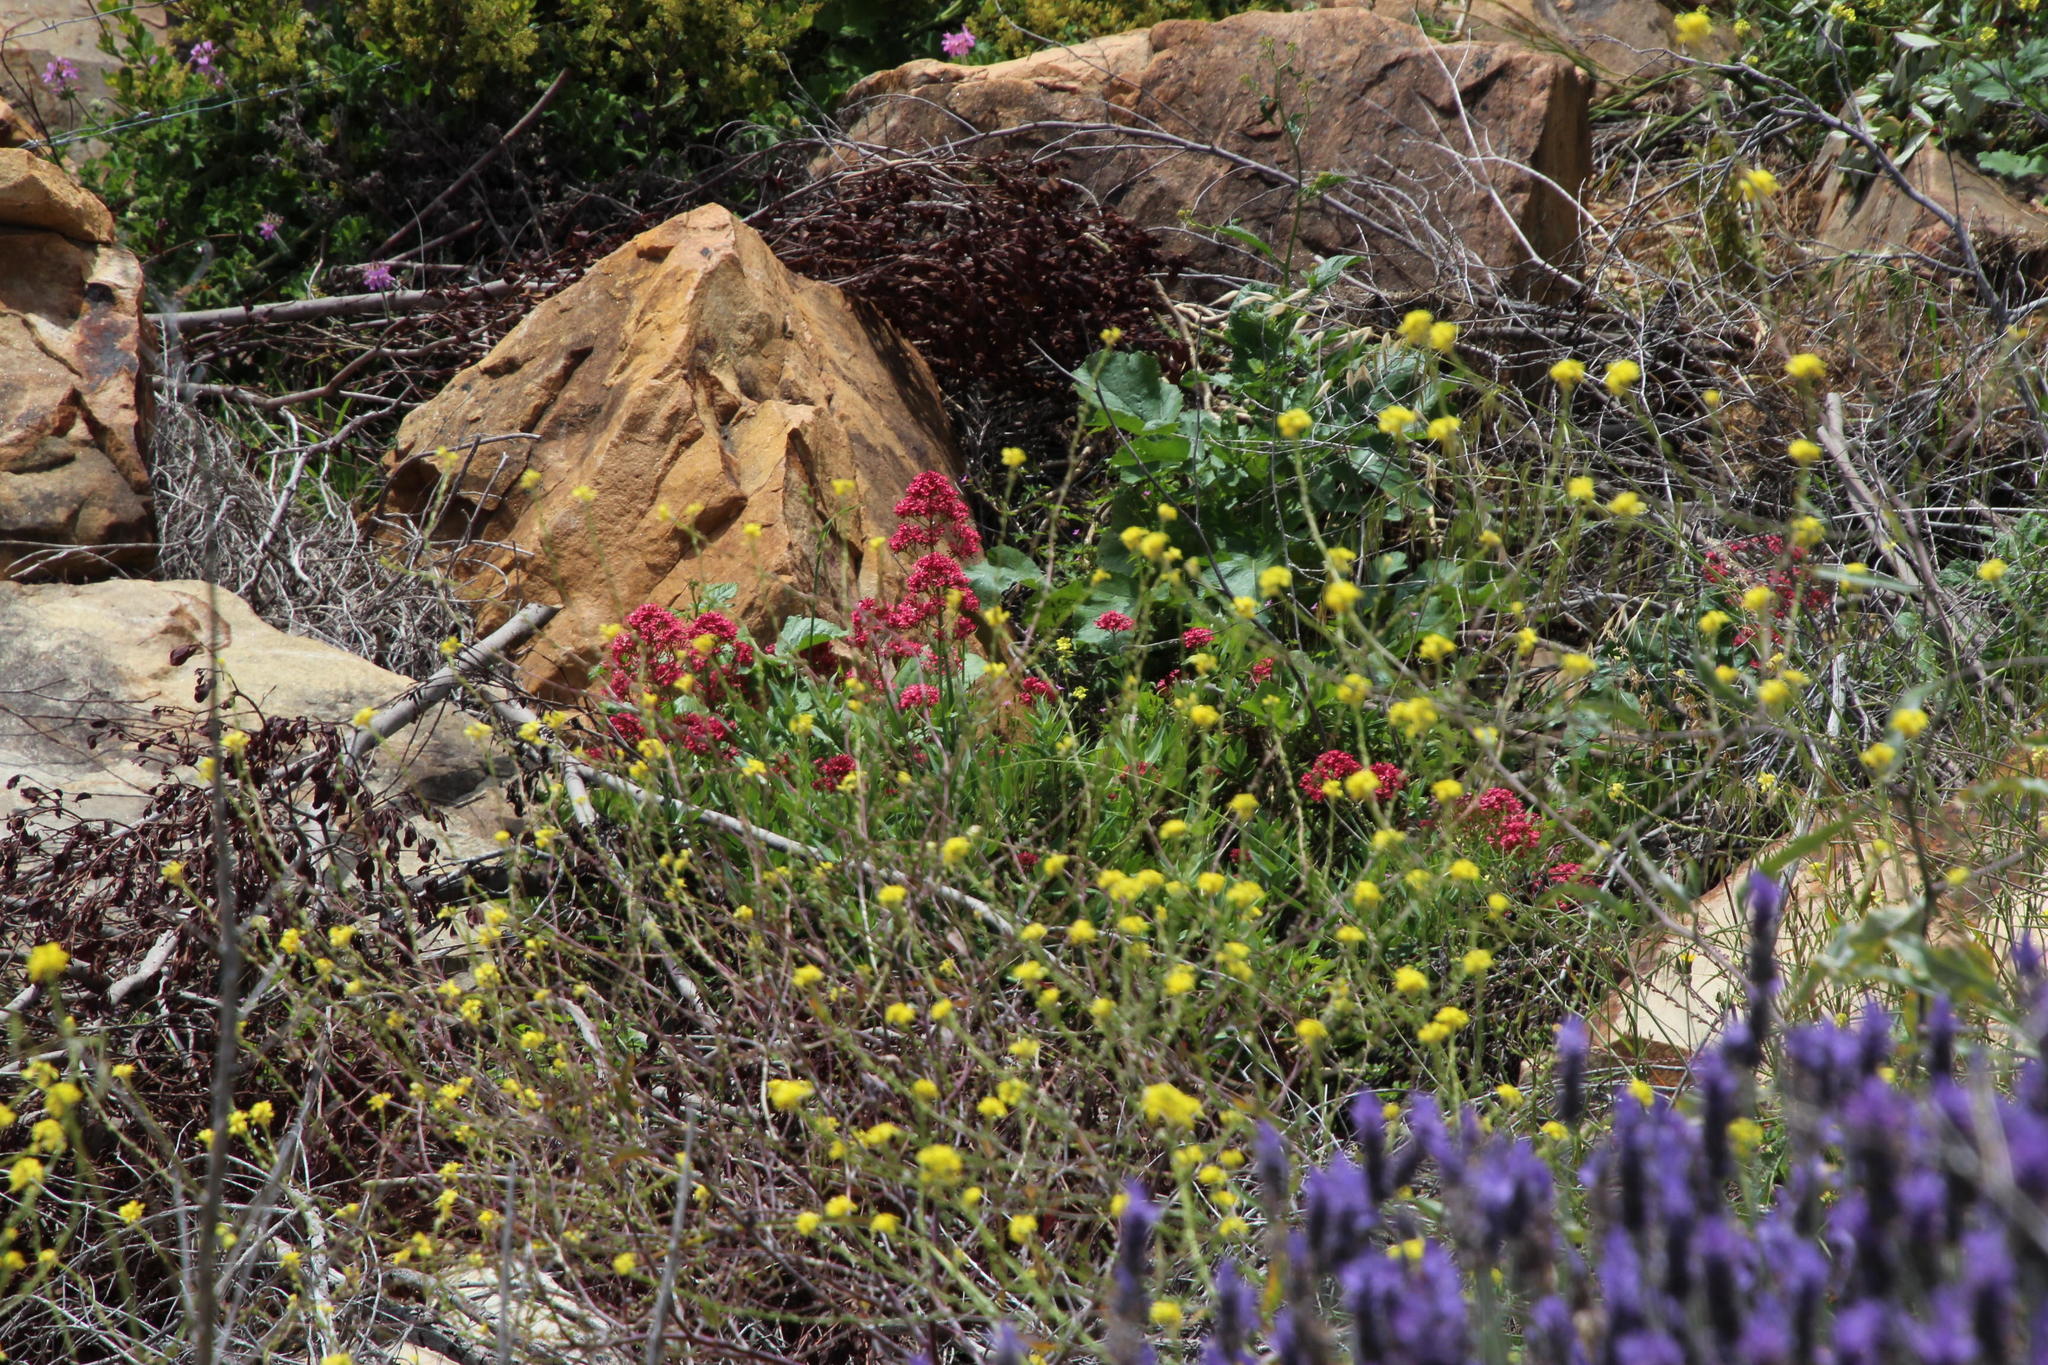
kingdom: Plantae
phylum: Tracheophyta
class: Magnoliopsida
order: Dipsacales
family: Caprifoliaceae
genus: Centranthus
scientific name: Centranthus ruber
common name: Red valerian
